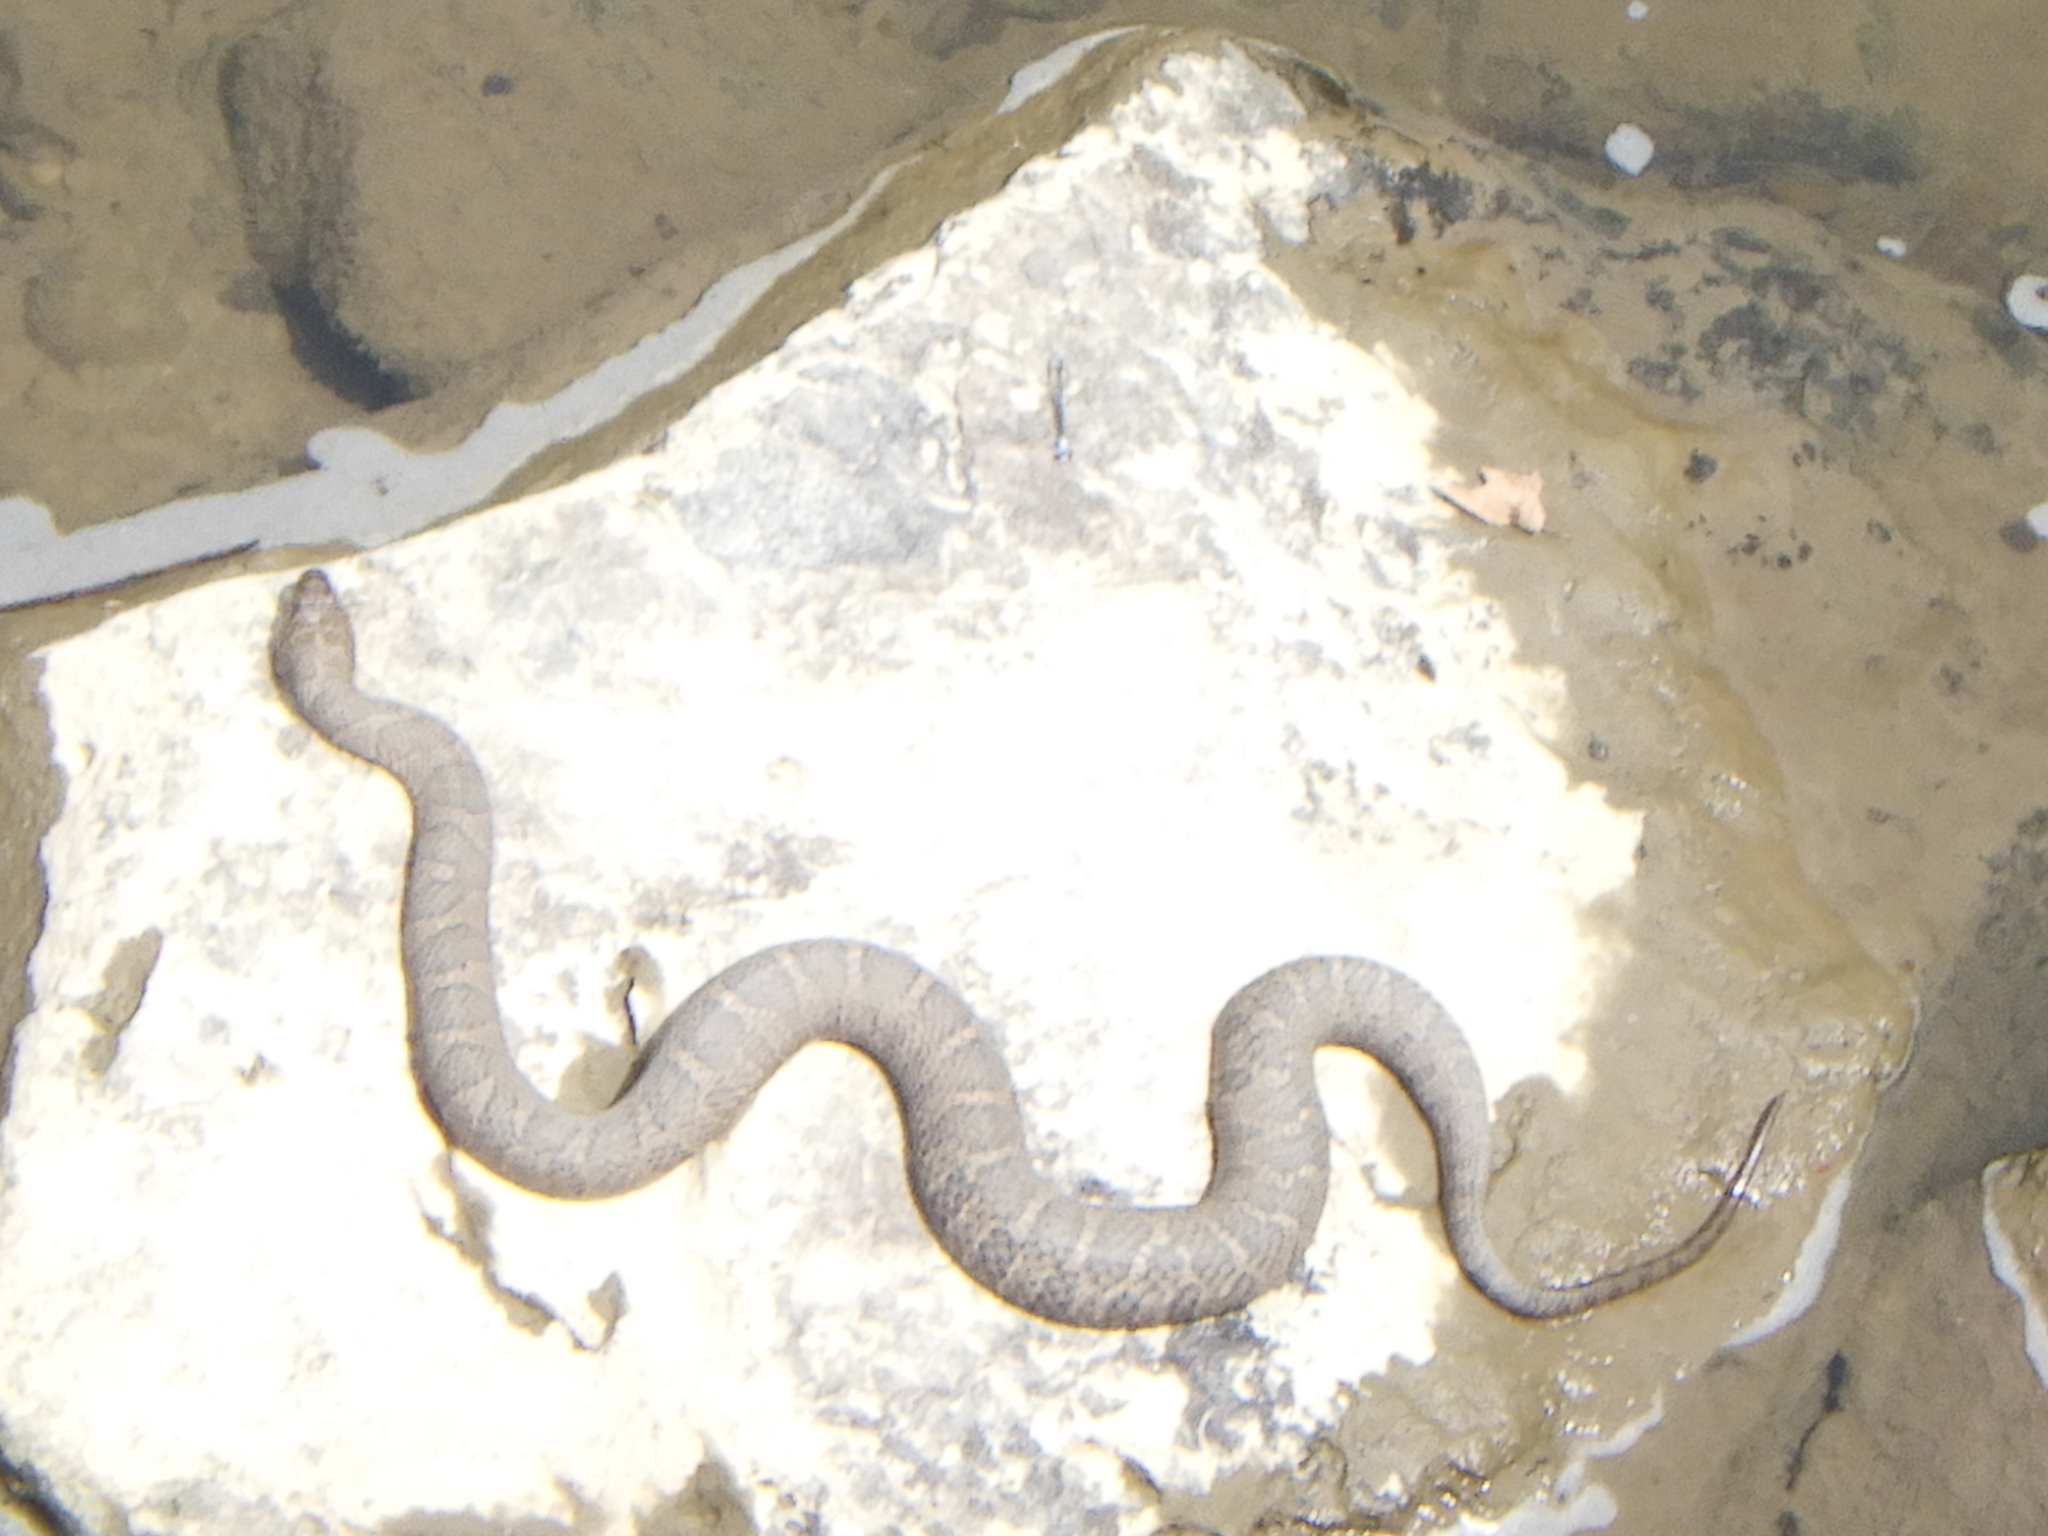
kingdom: Animalia
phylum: Chordata
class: Squamata
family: Colubridae
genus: Nerodia
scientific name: Nerodia sipedon
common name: Northern water snake
